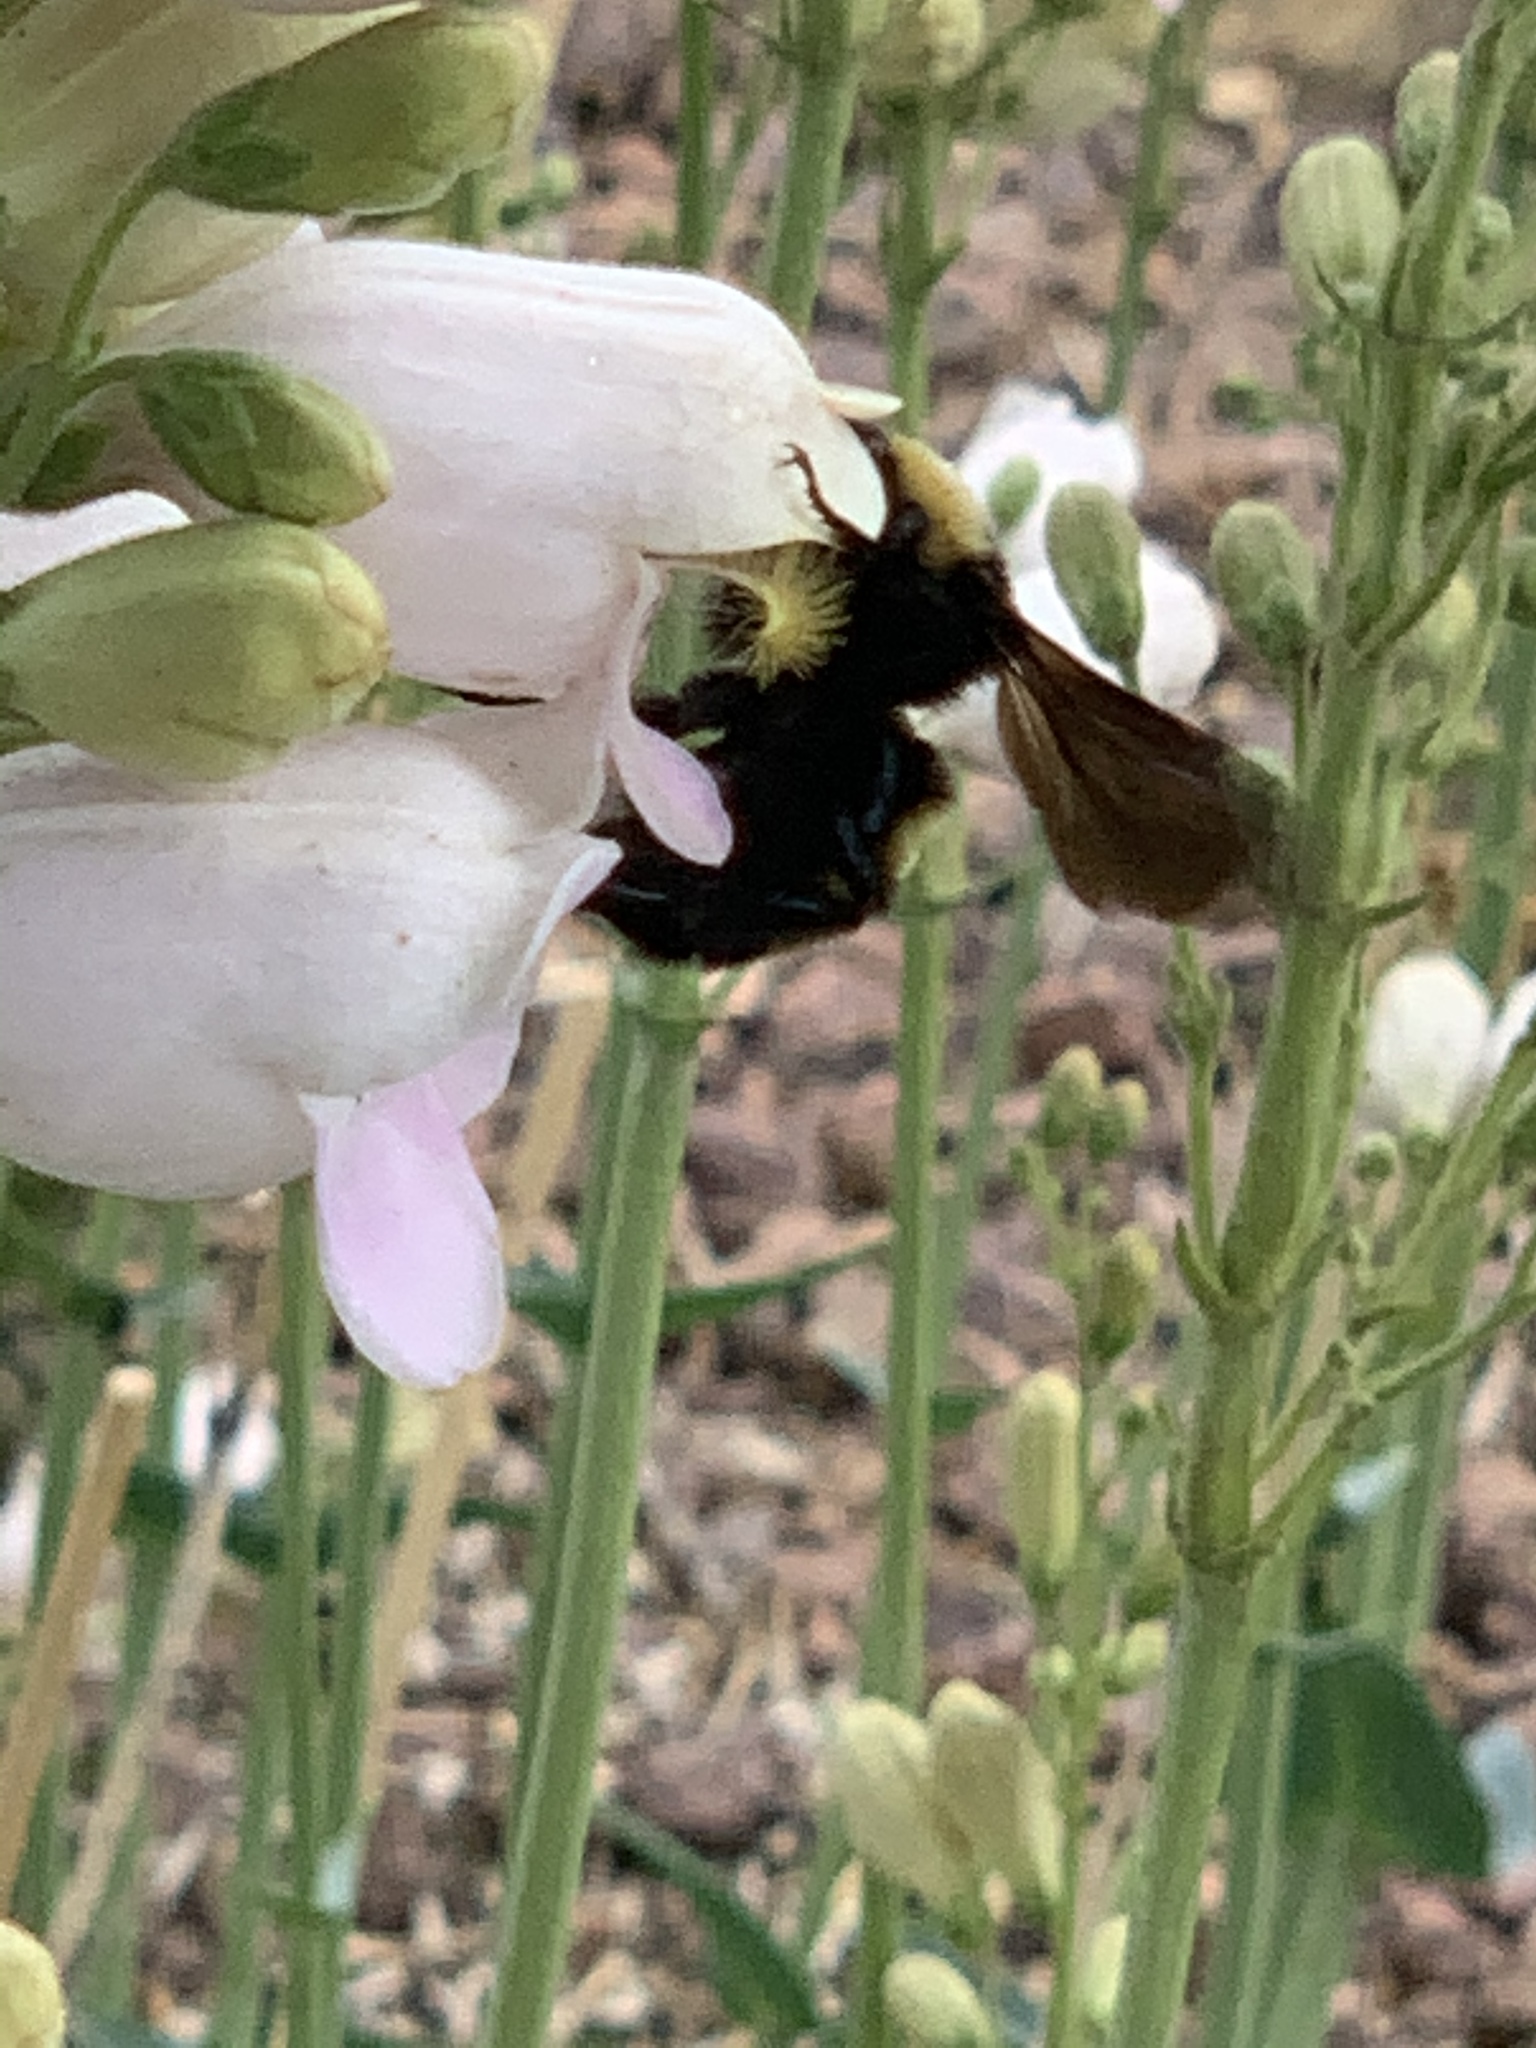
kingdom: Animalia
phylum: Arthropoda
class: Insecta
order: Hymenoptera
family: Apidae
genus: Bombus
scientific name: Bombus pensylvanicus
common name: Bumble bee
